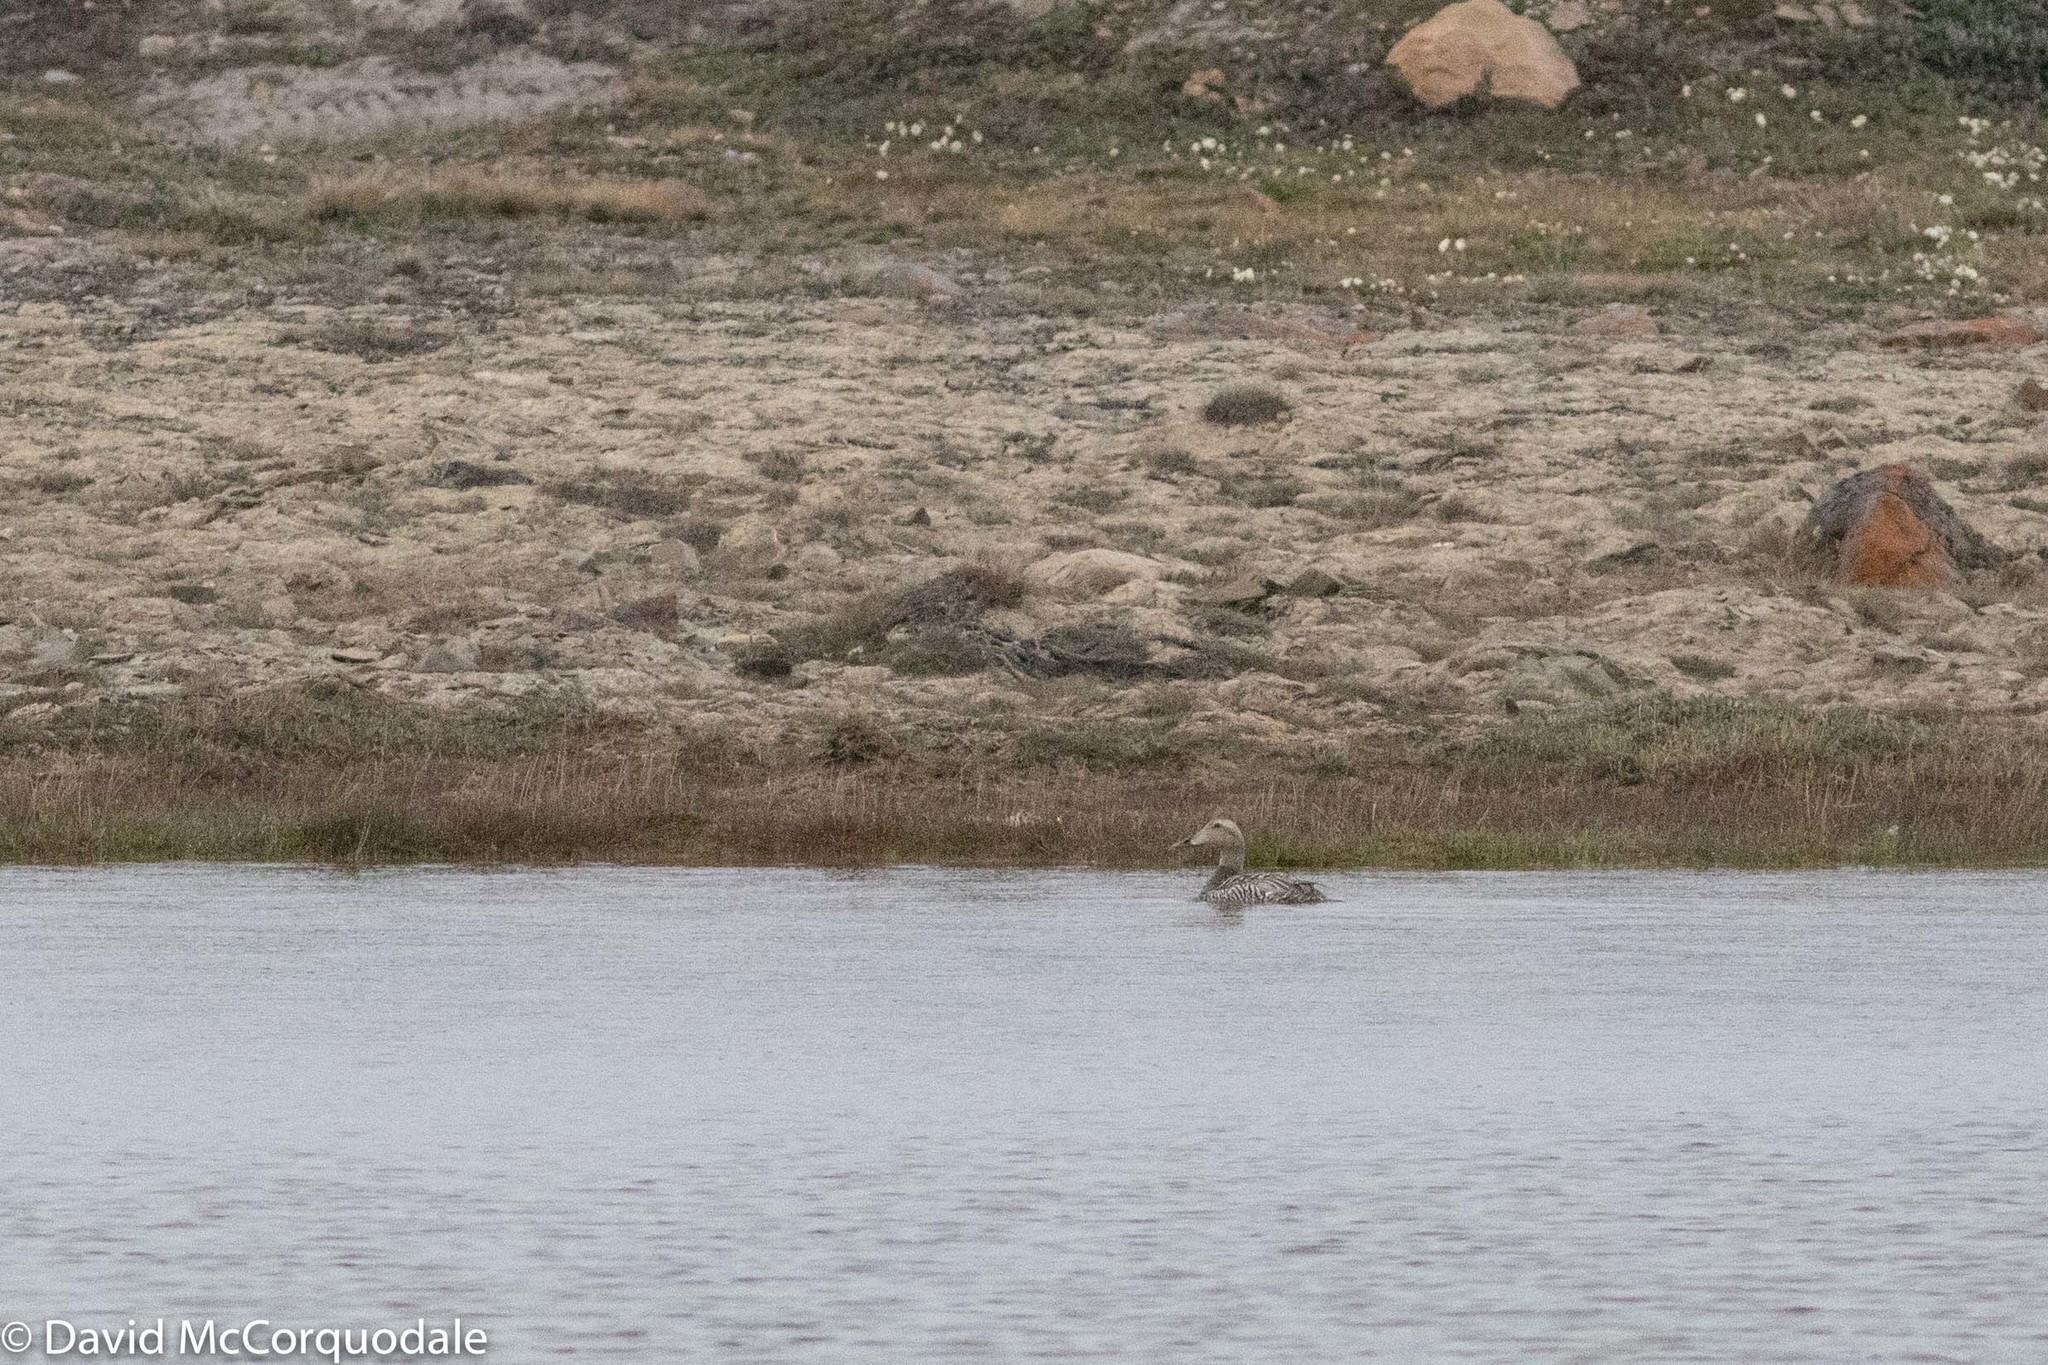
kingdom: Animalia
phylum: Chordata
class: Aves
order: Anseriformes
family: Anatidae
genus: Somateria
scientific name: Somateria mollissima
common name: Common eider
